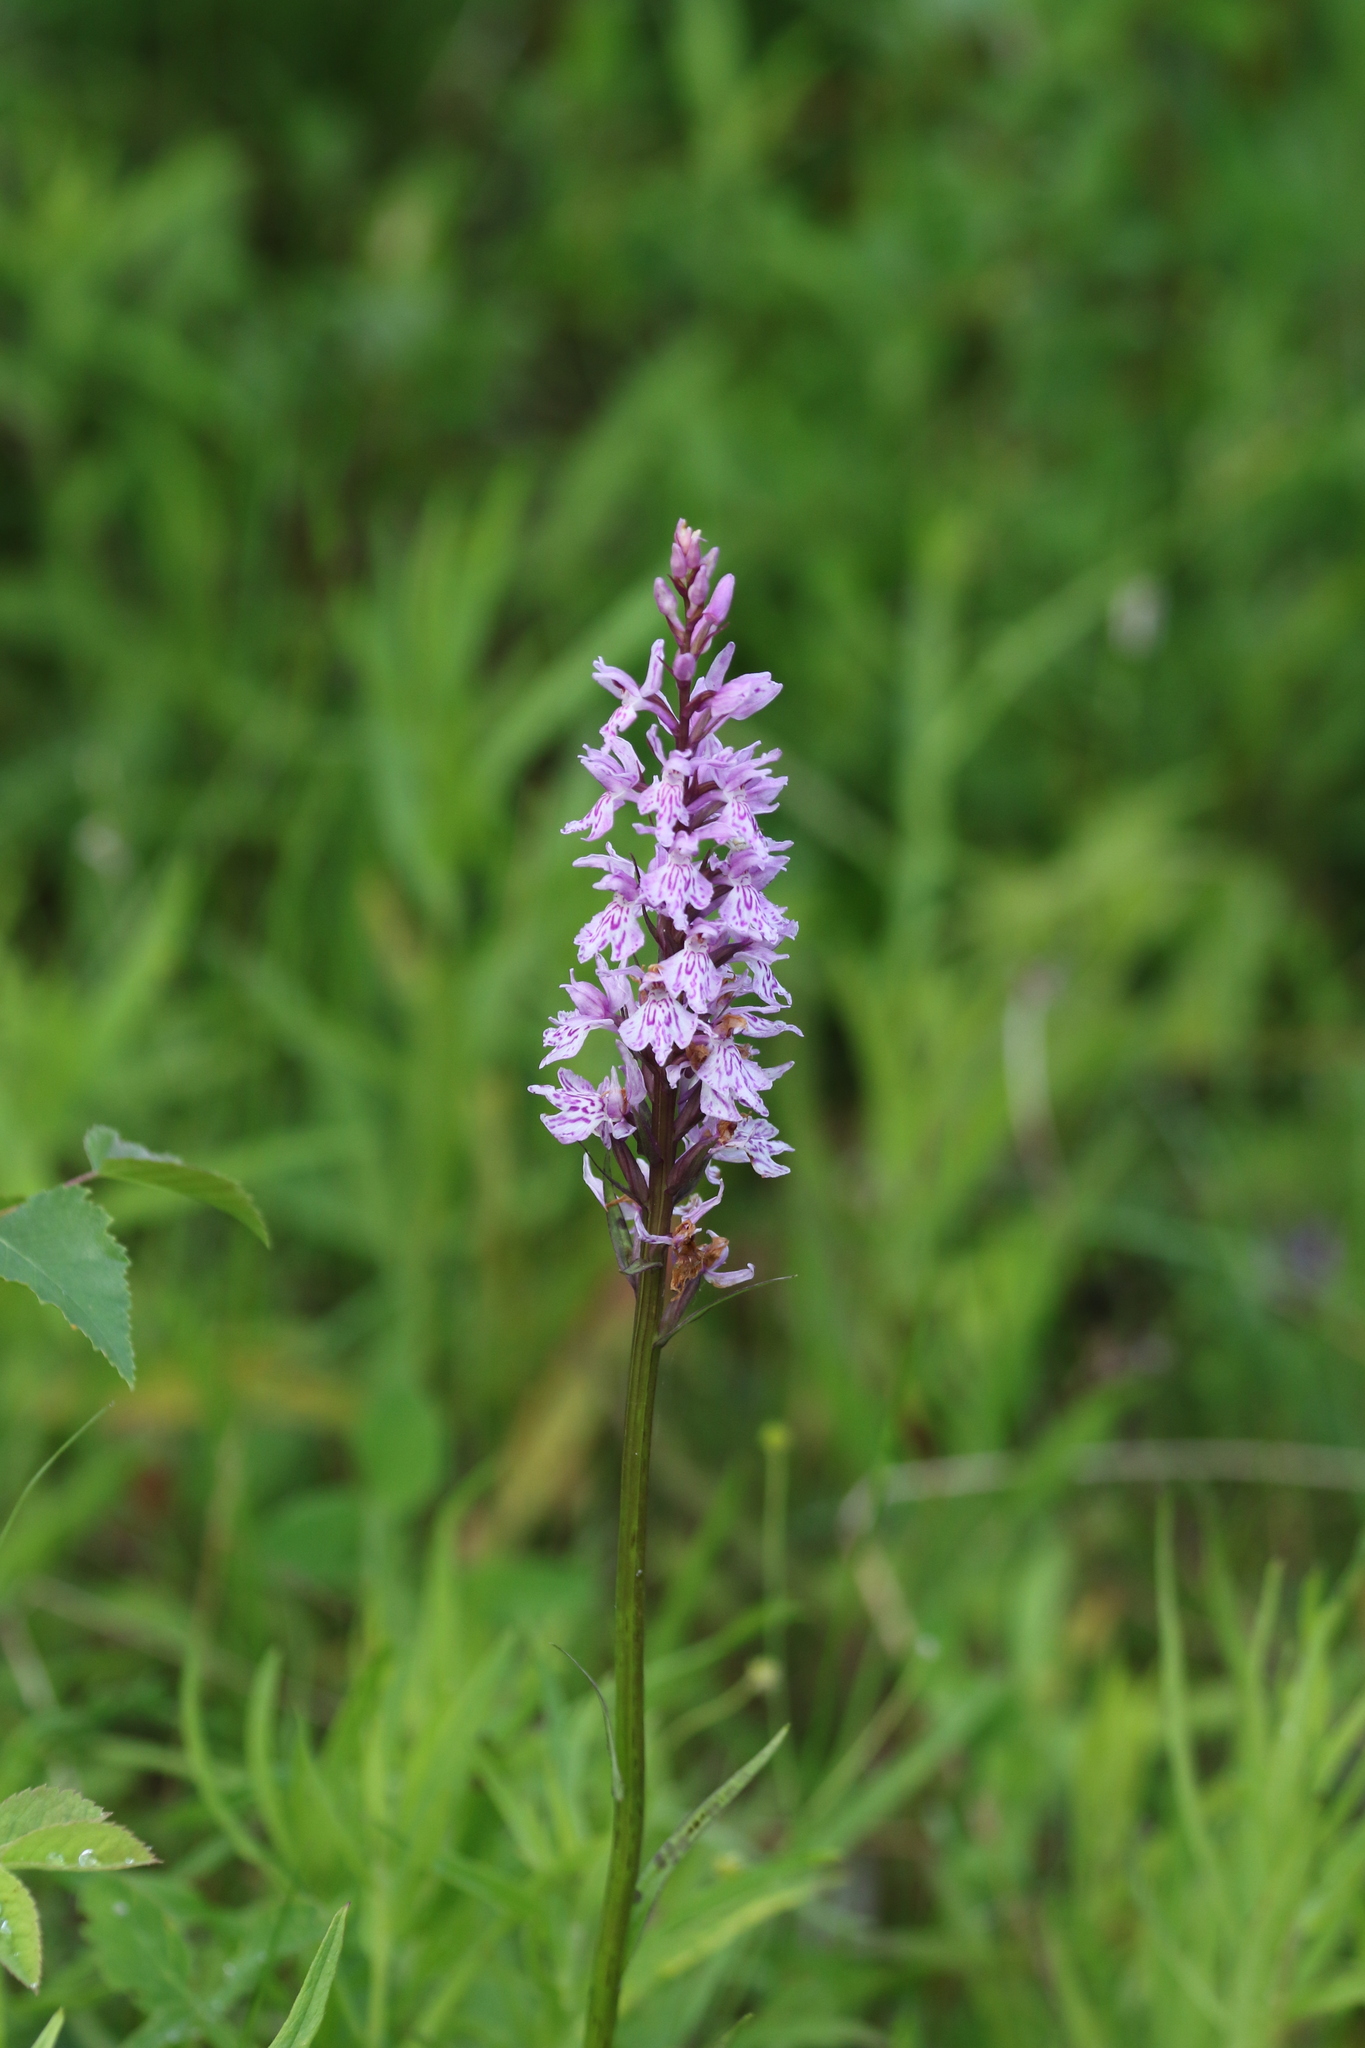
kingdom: Plantae
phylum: Tracheophyta
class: Liliopsida
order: Asparagales
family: Orchidaceae
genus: Dactylorhiza
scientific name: Dactylorhiza maculata
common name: Heath spotted-orchid
